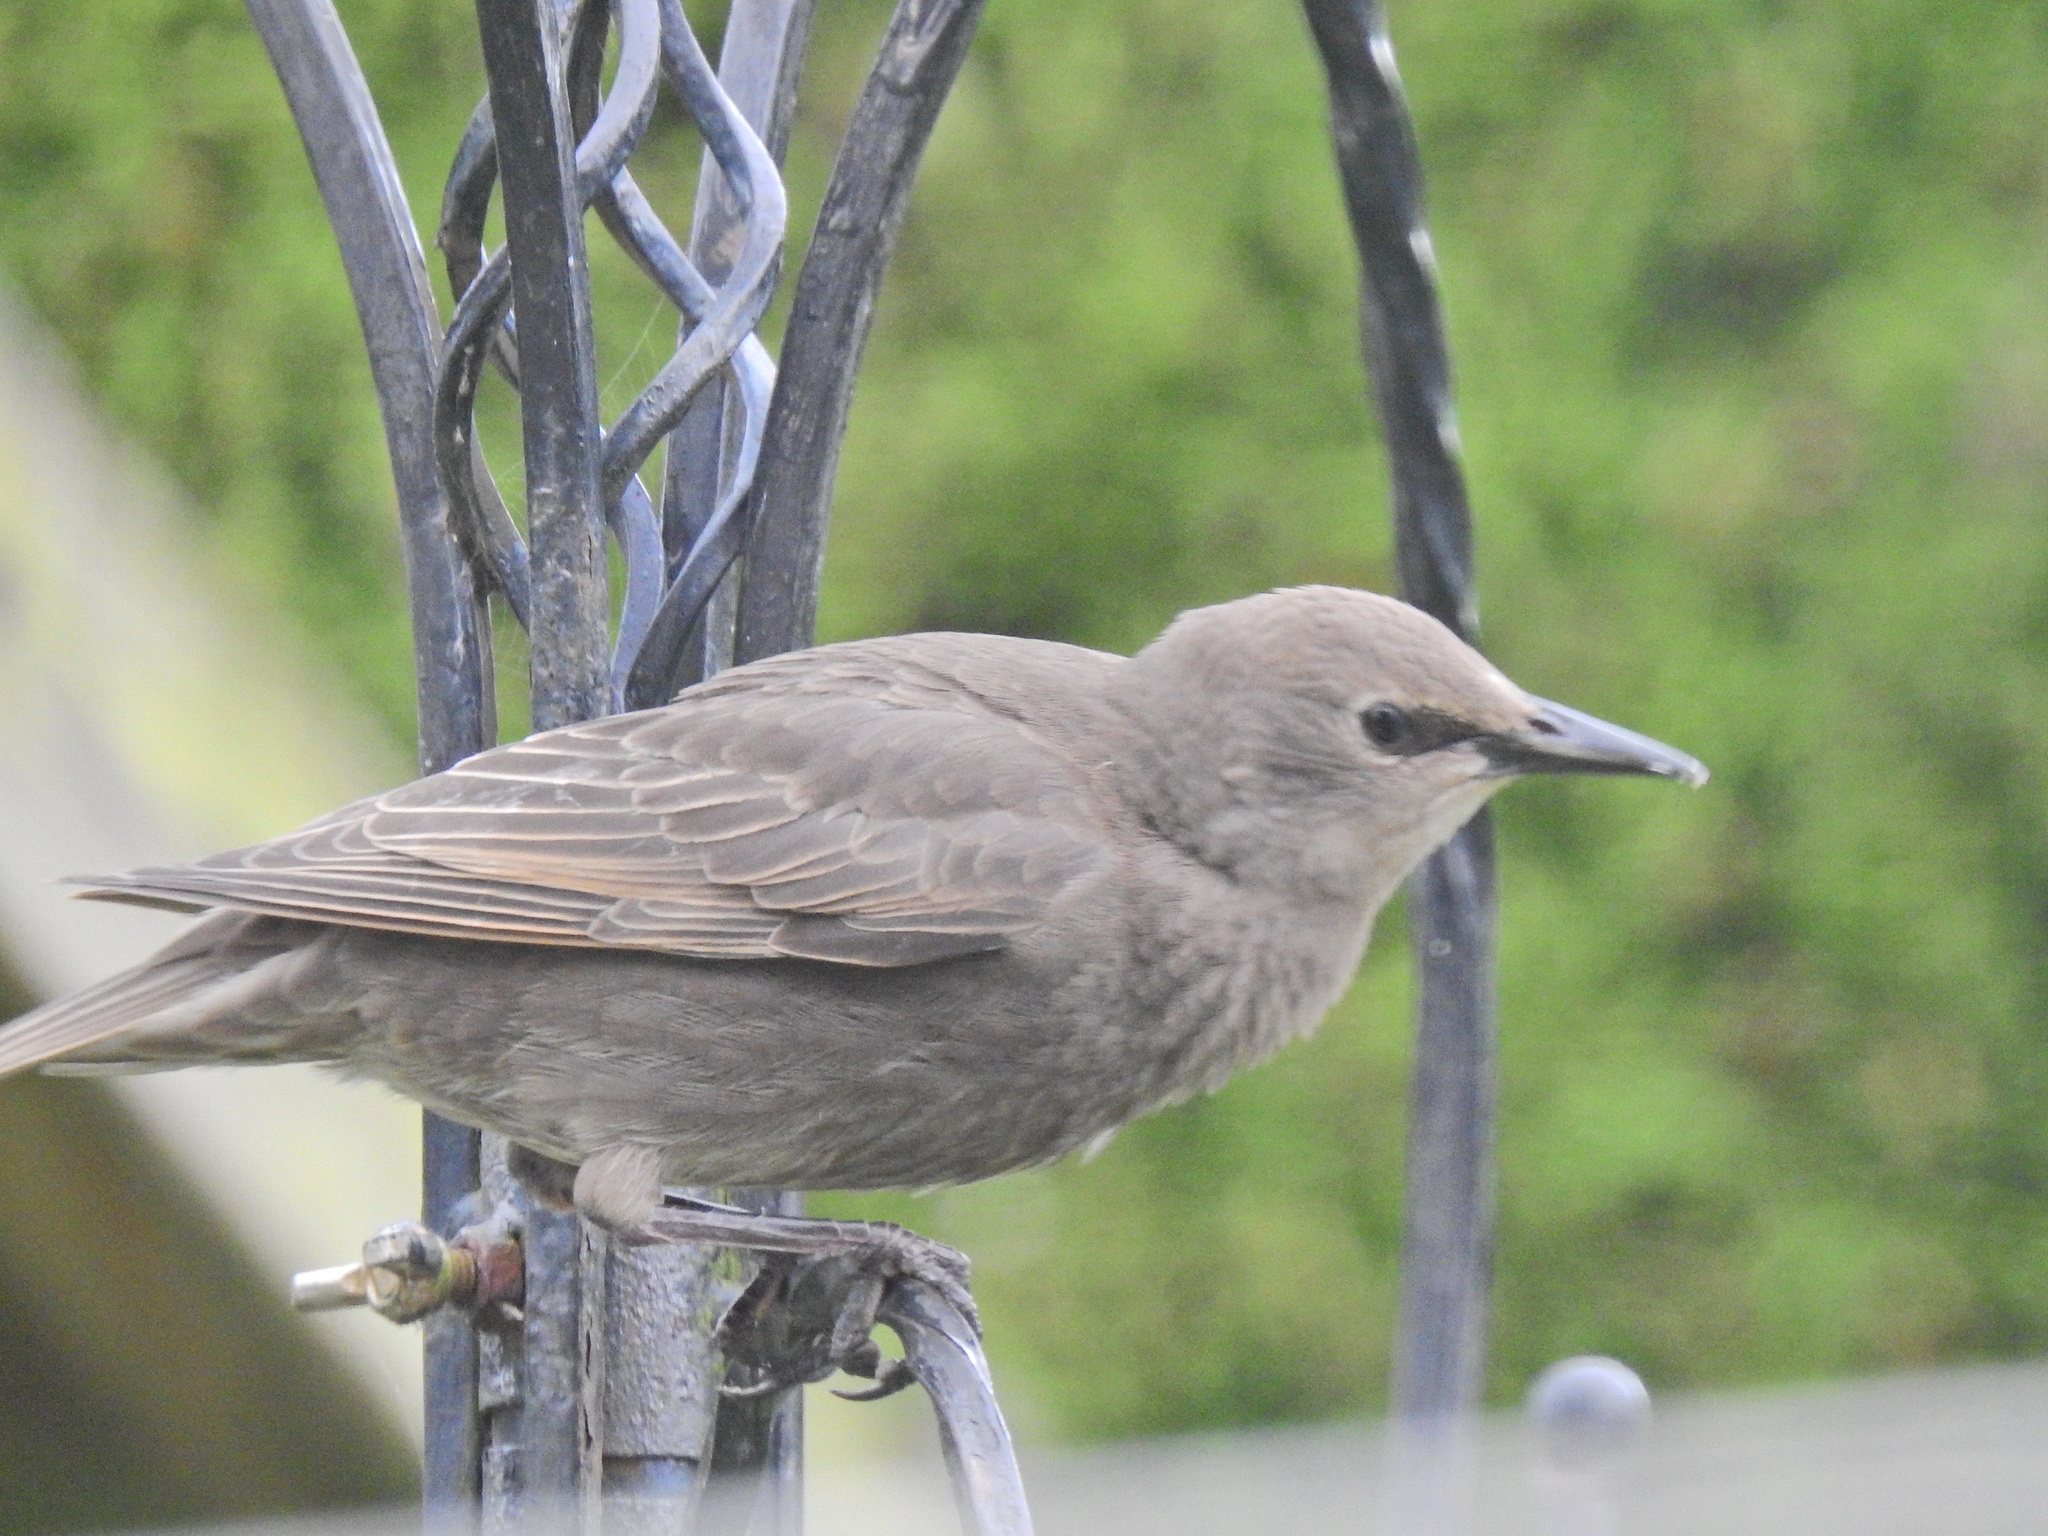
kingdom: Animalia
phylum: Chordata
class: Aves
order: Passeriformes
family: Sturnidae
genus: Sturnus
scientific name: Sturnus vulgaris
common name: Common starling
